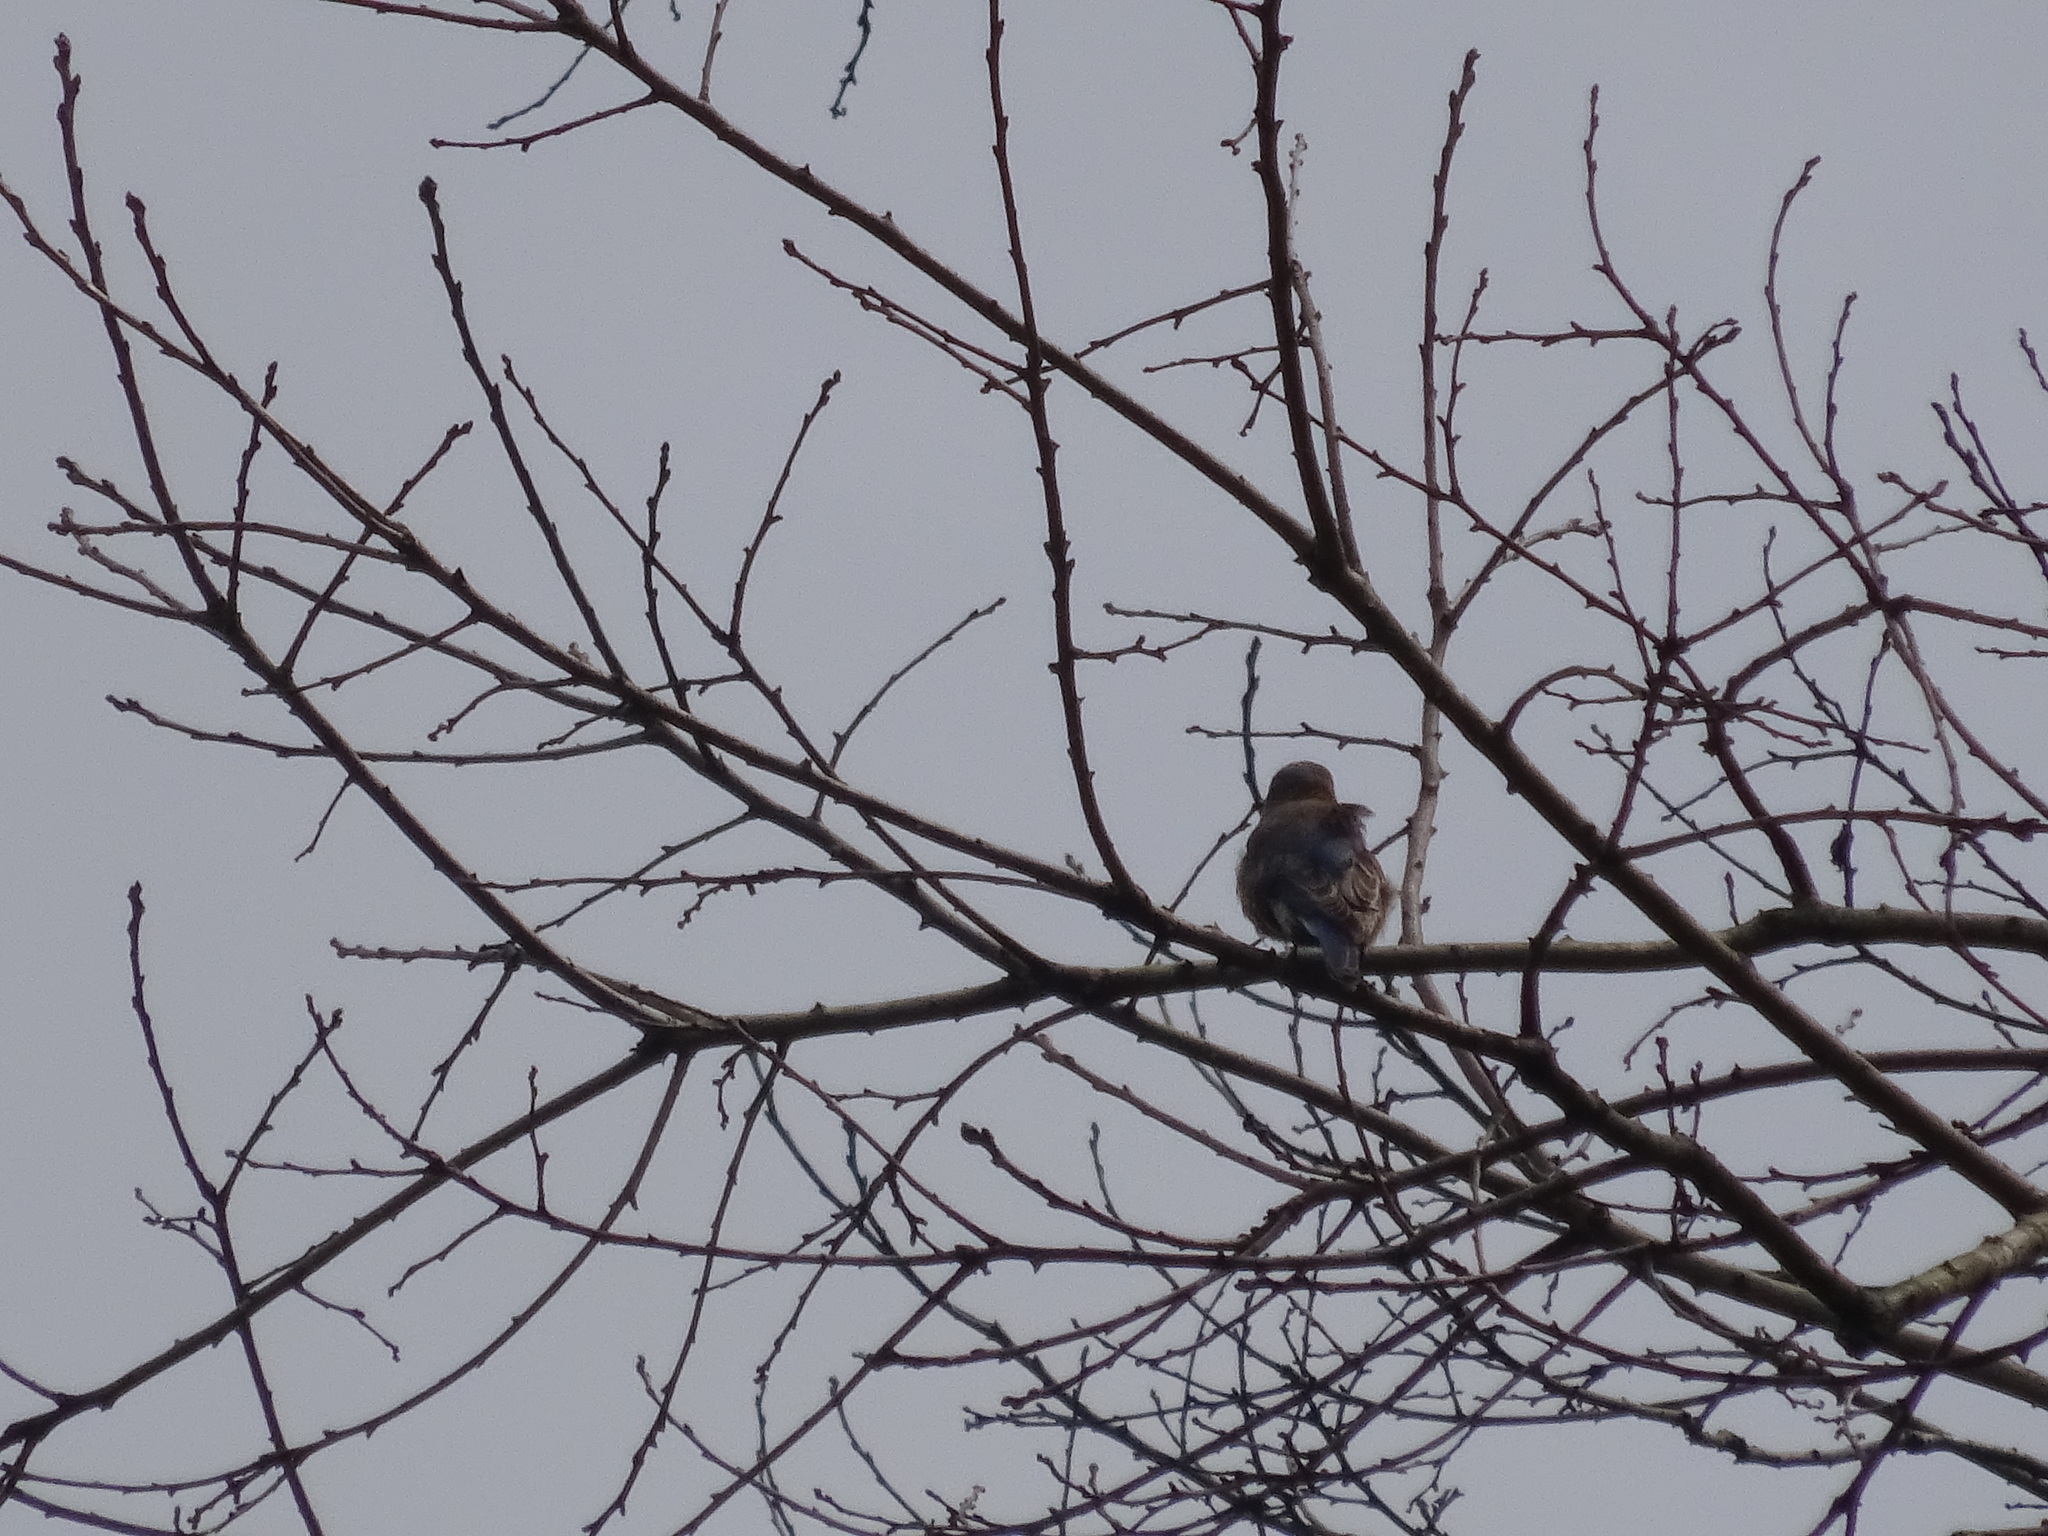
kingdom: Animalia
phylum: Chordata
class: Aves
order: Passeriformes
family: Turdidae
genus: Sialia
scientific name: Sialia sialis
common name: Eastern bluebird
